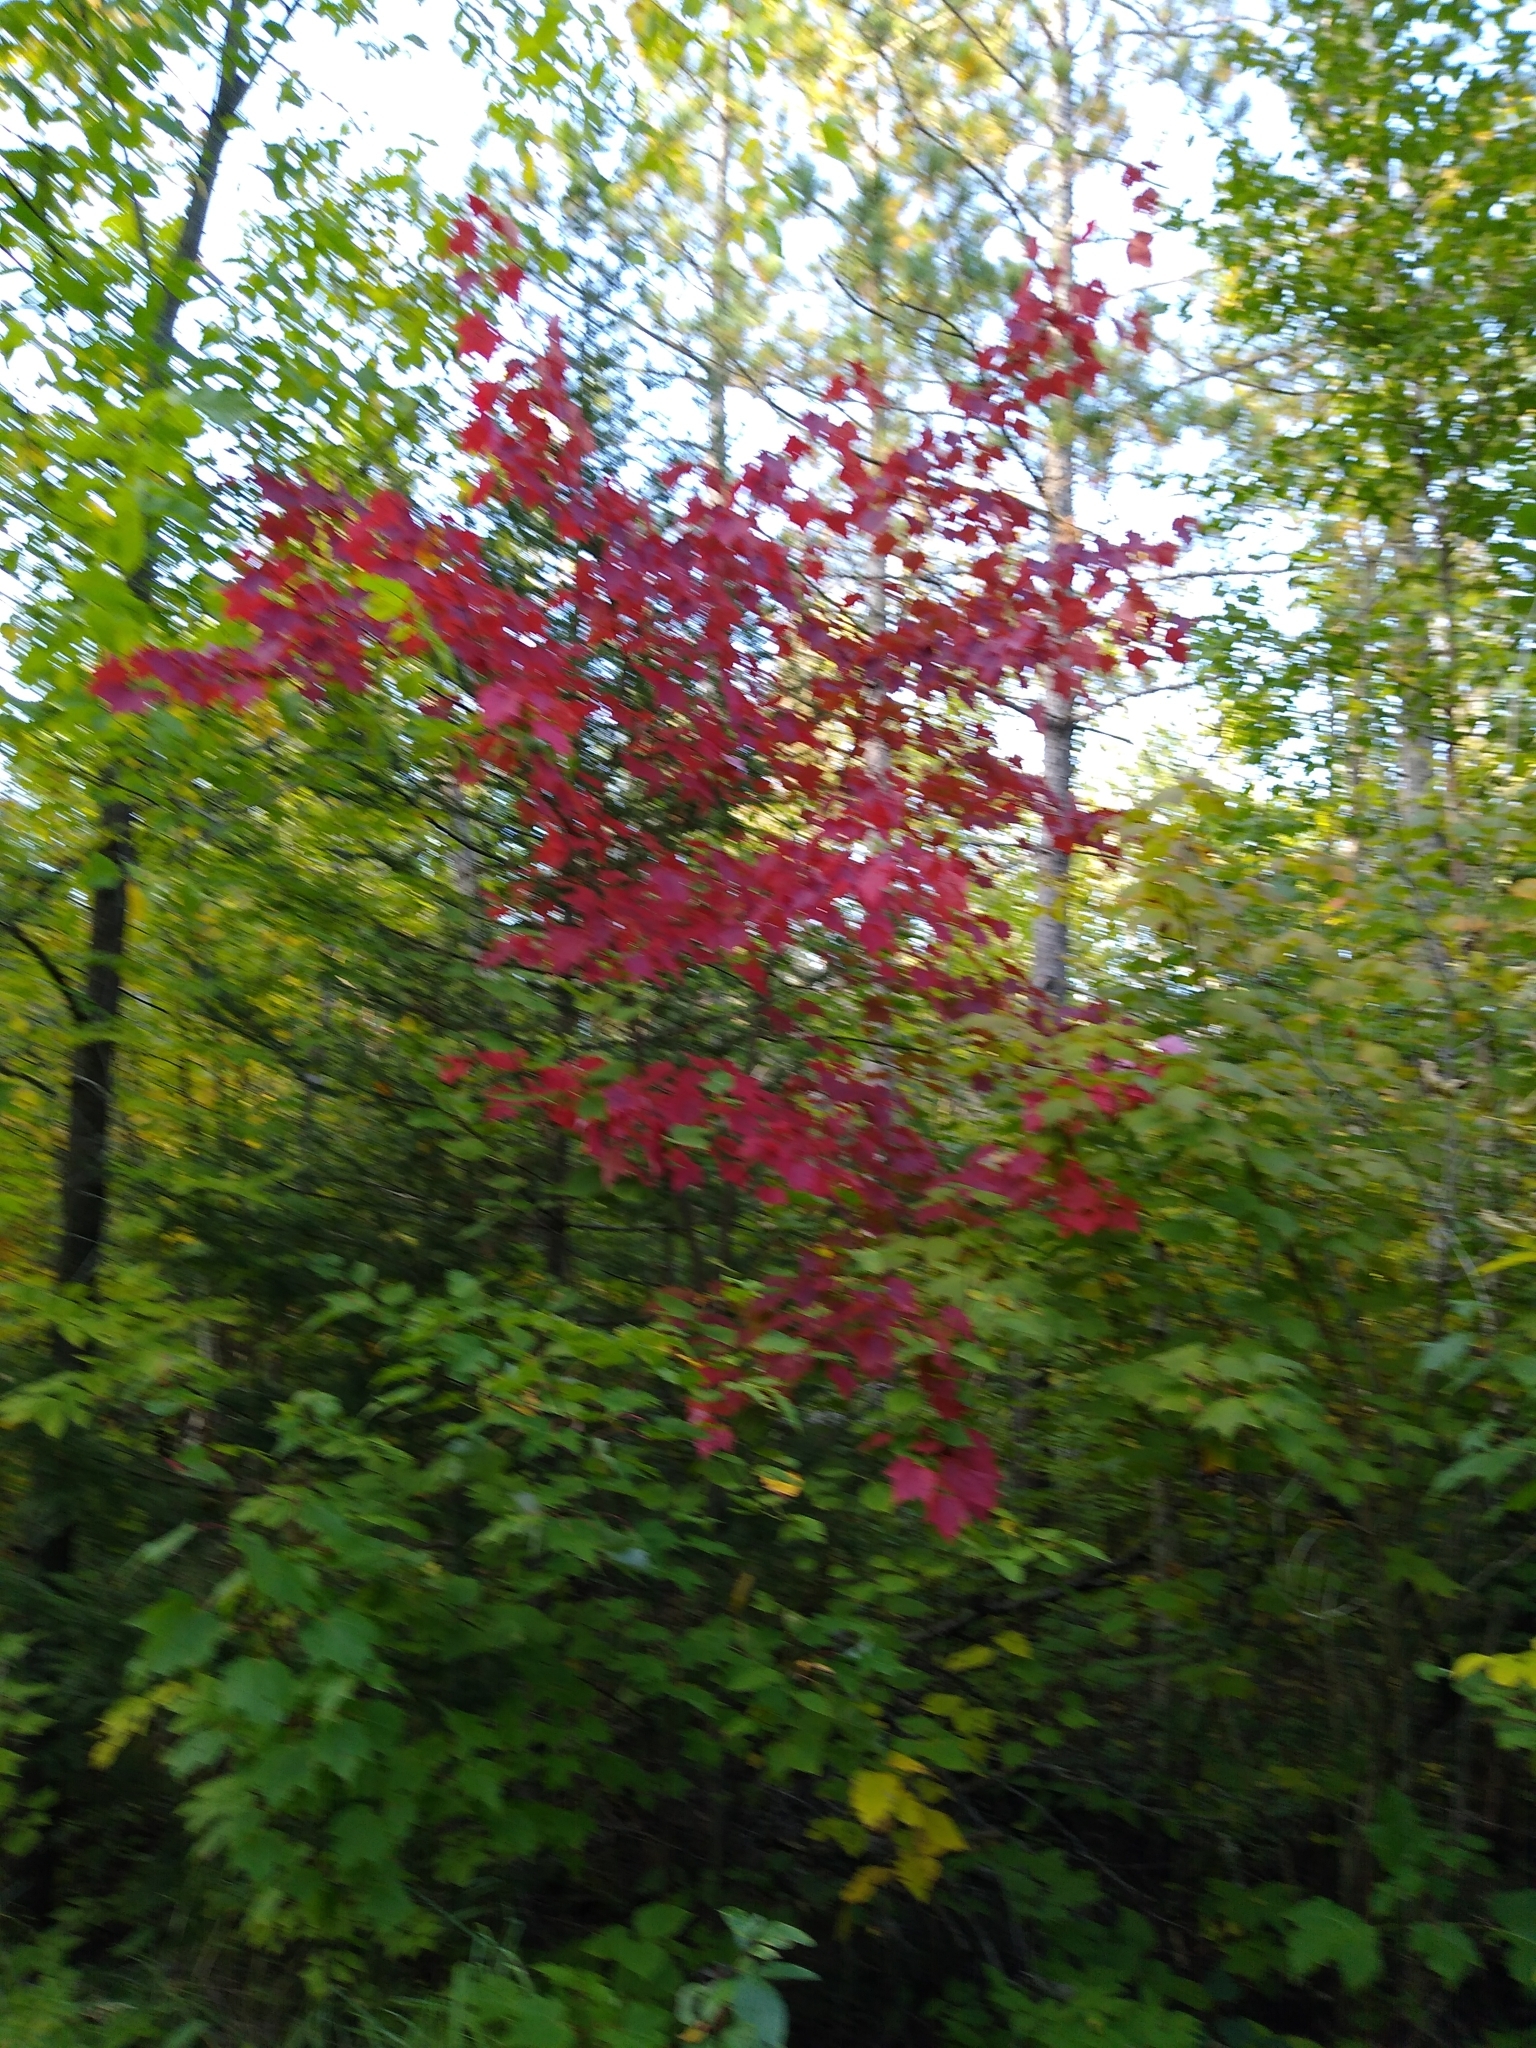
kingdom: Plantae
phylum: Tracheophyta
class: Magnoliopsida
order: Sapindales
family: Sapindaceae
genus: Acer
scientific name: Acer rubrum
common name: Red maple
